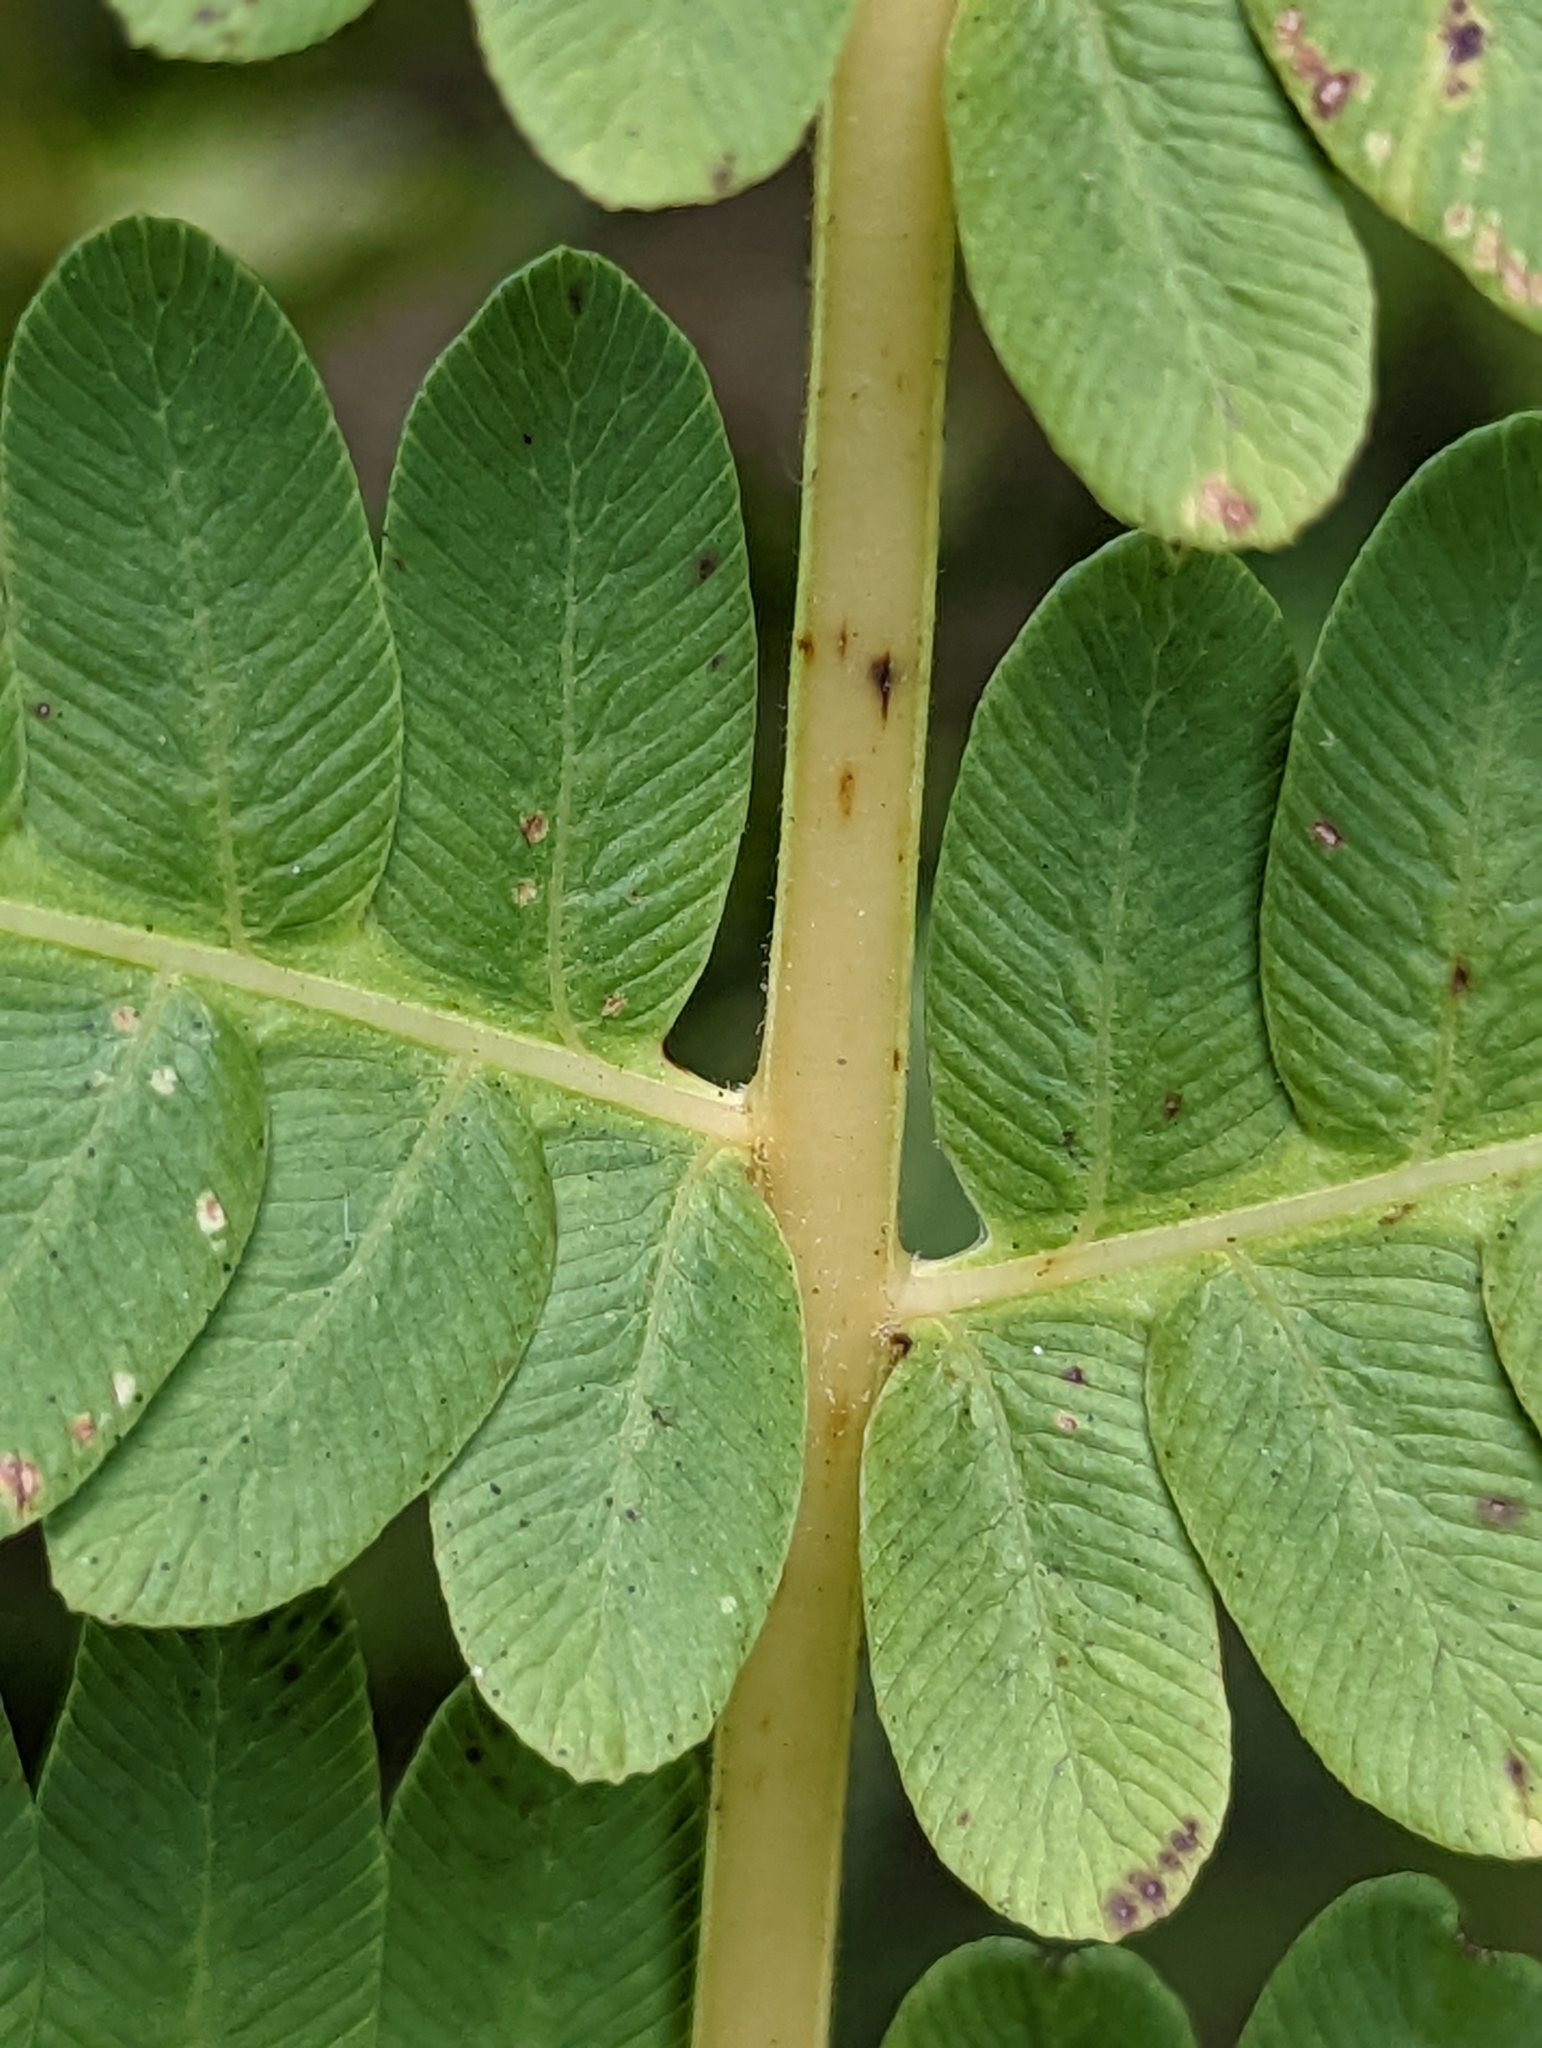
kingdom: Plantae
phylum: Tracheophyta
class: Polypodiopsida
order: Osmundales
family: Osmundaceae
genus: Osmundastrum
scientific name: Osmundastrum cinnamomeum
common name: Cinnamon fern
